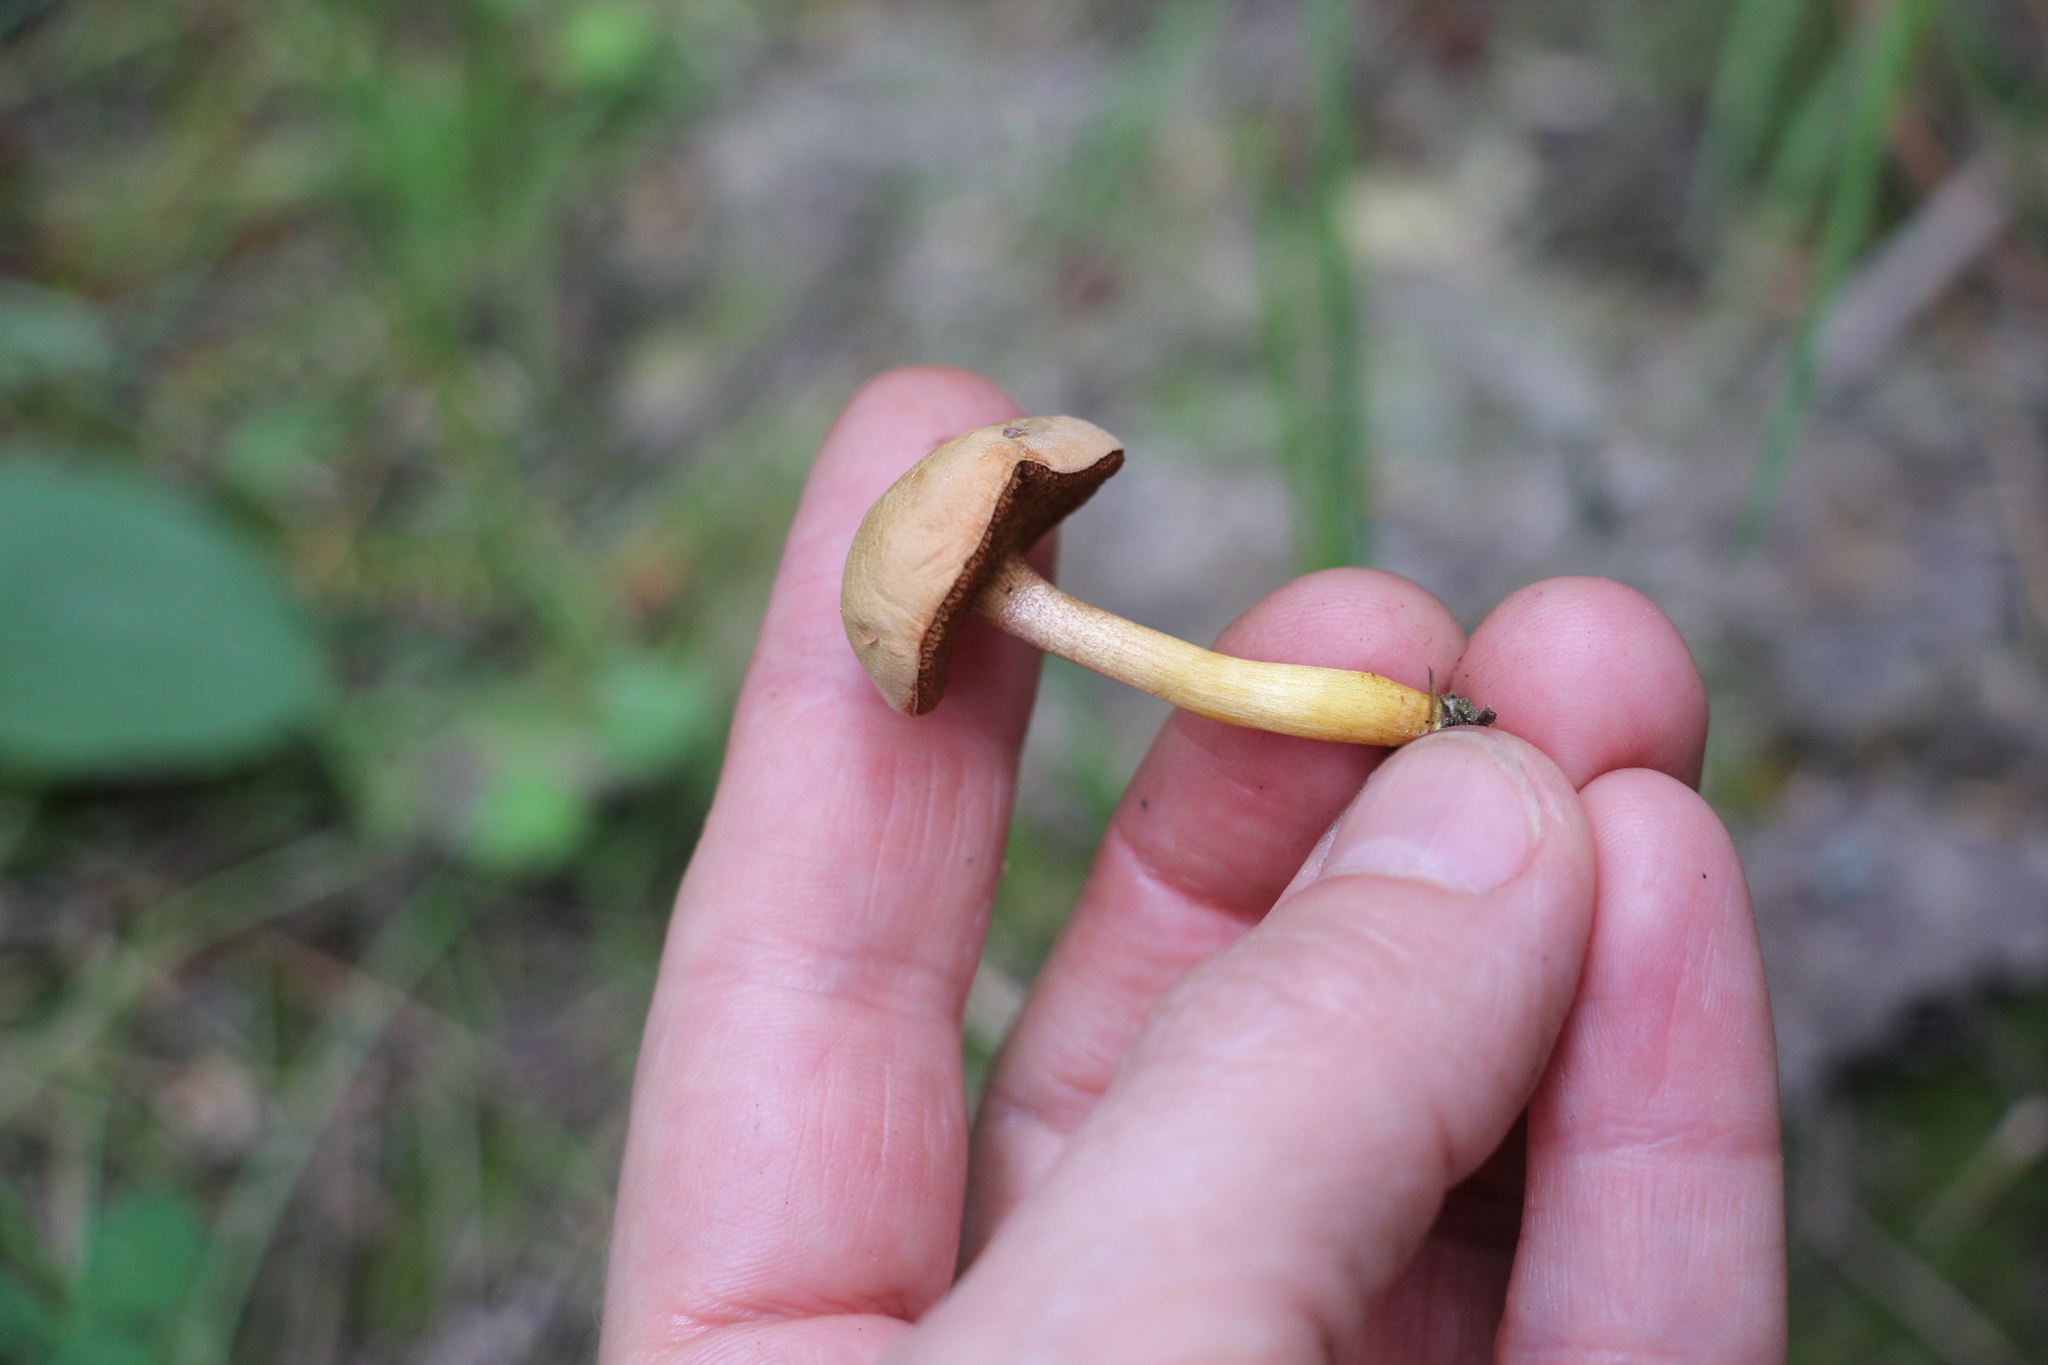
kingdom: Fungi
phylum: Basidiomycota
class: Agaricomycetes
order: Boletales
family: Boletaceae
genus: Chalciporus
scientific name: Chalciporus piperatus
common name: Peppery bolete
